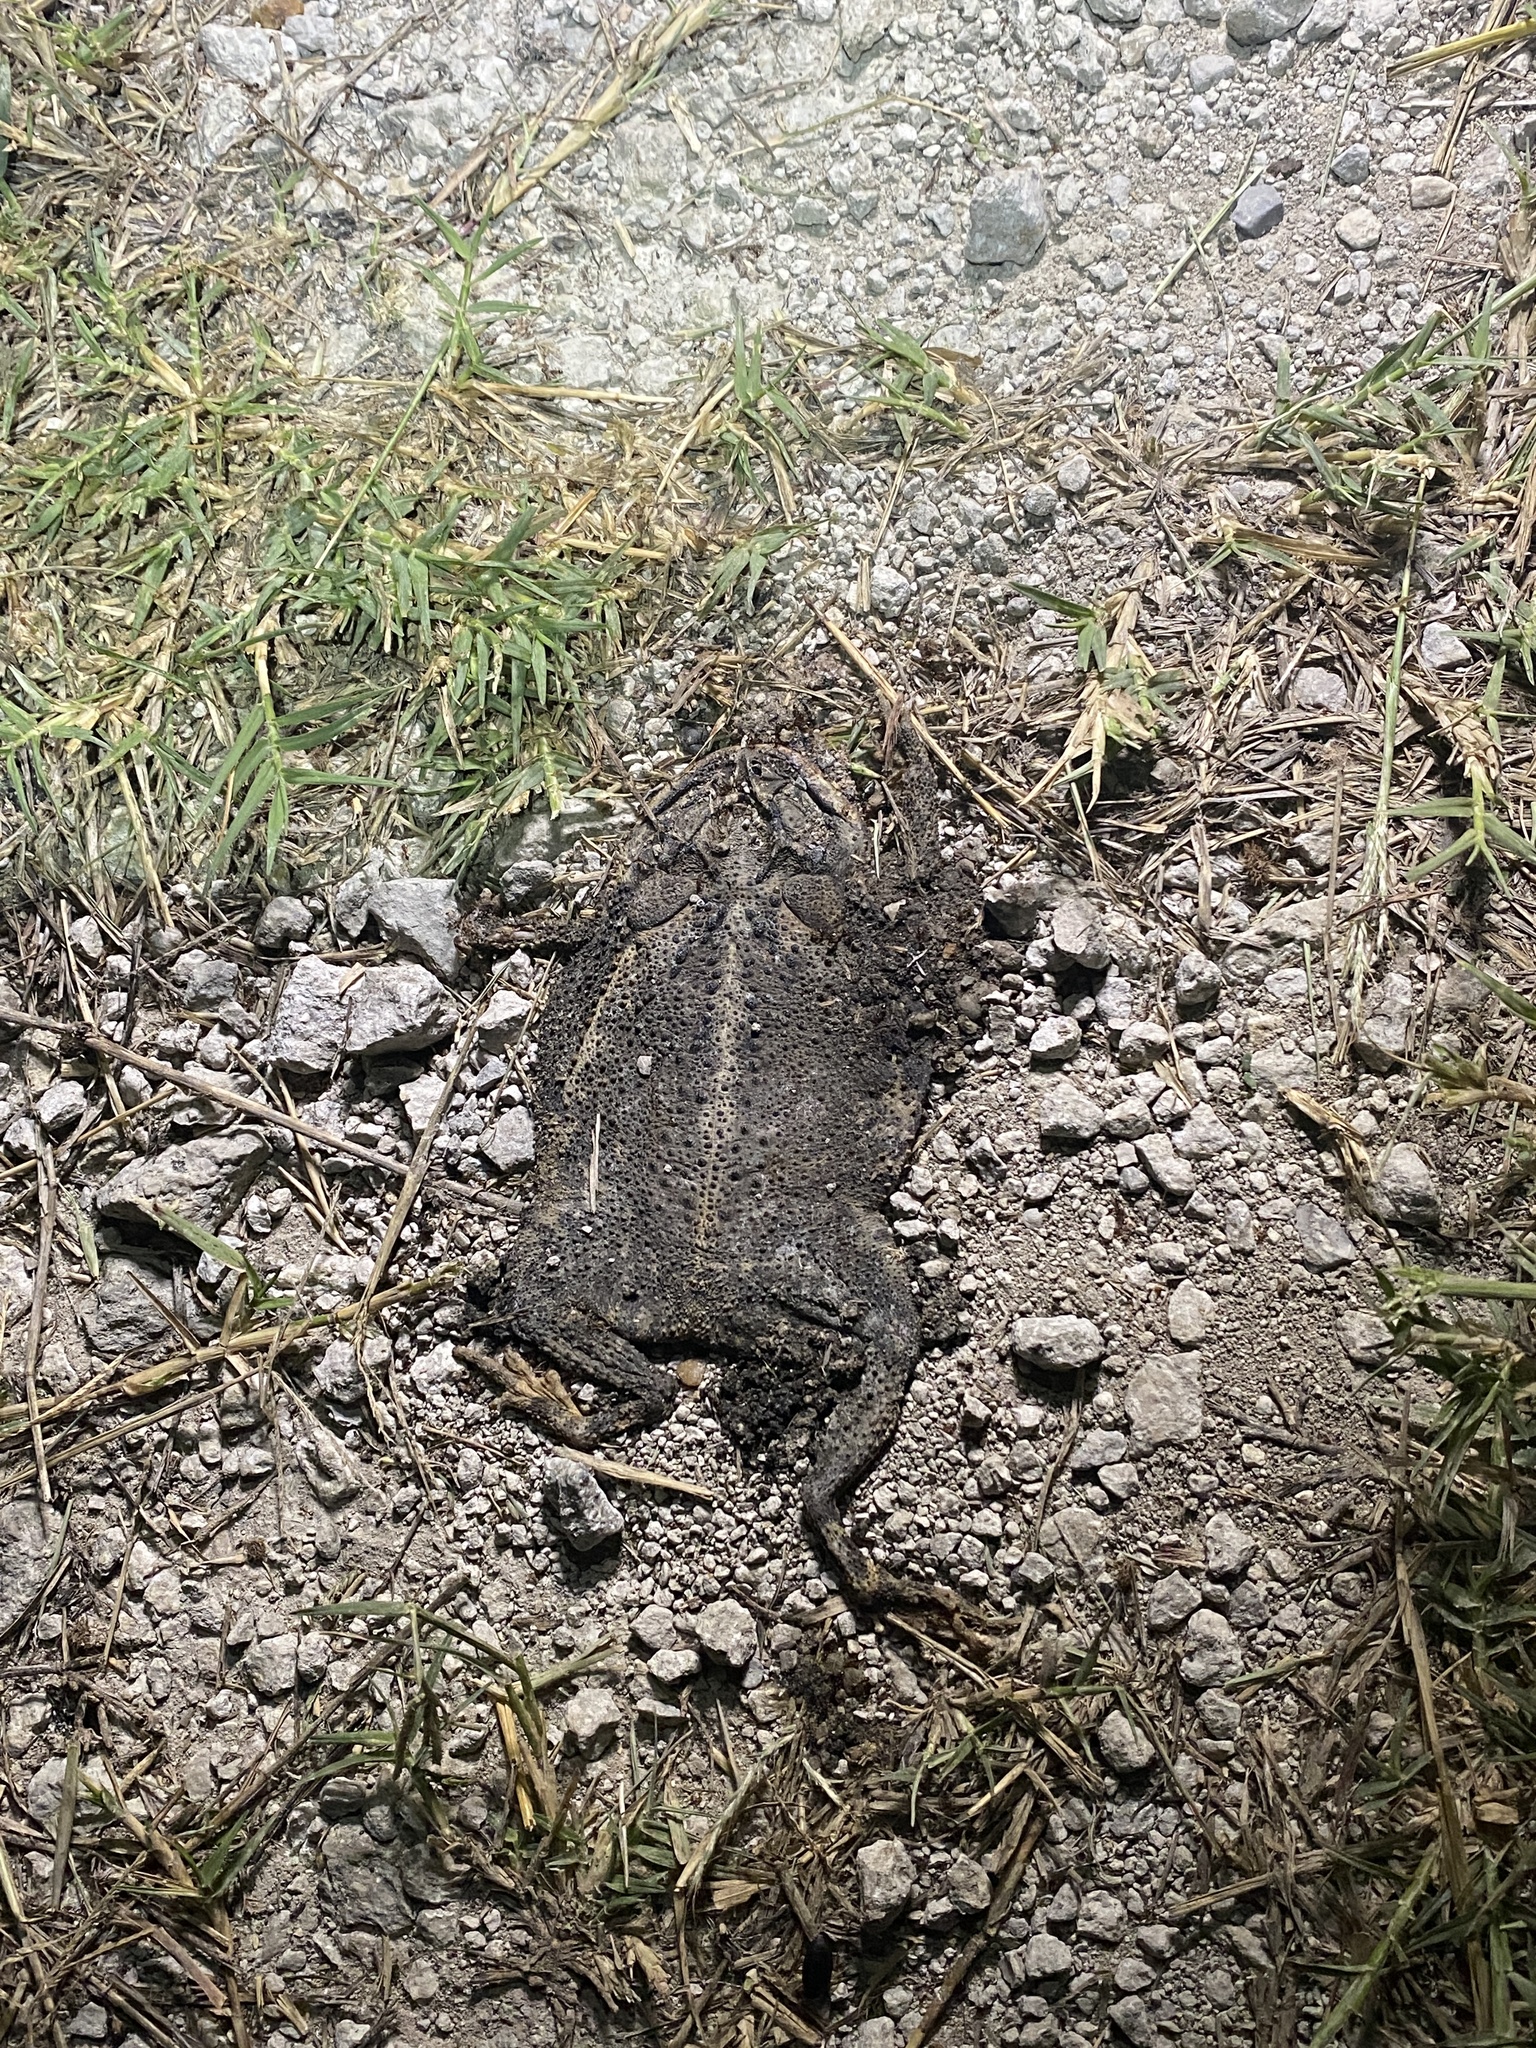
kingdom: Animalia
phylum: Chordata
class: Amphibia
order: Anura
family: Bufonidae
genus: Incilius
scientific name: Incilius nebulifer
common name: Gulf coast toad
